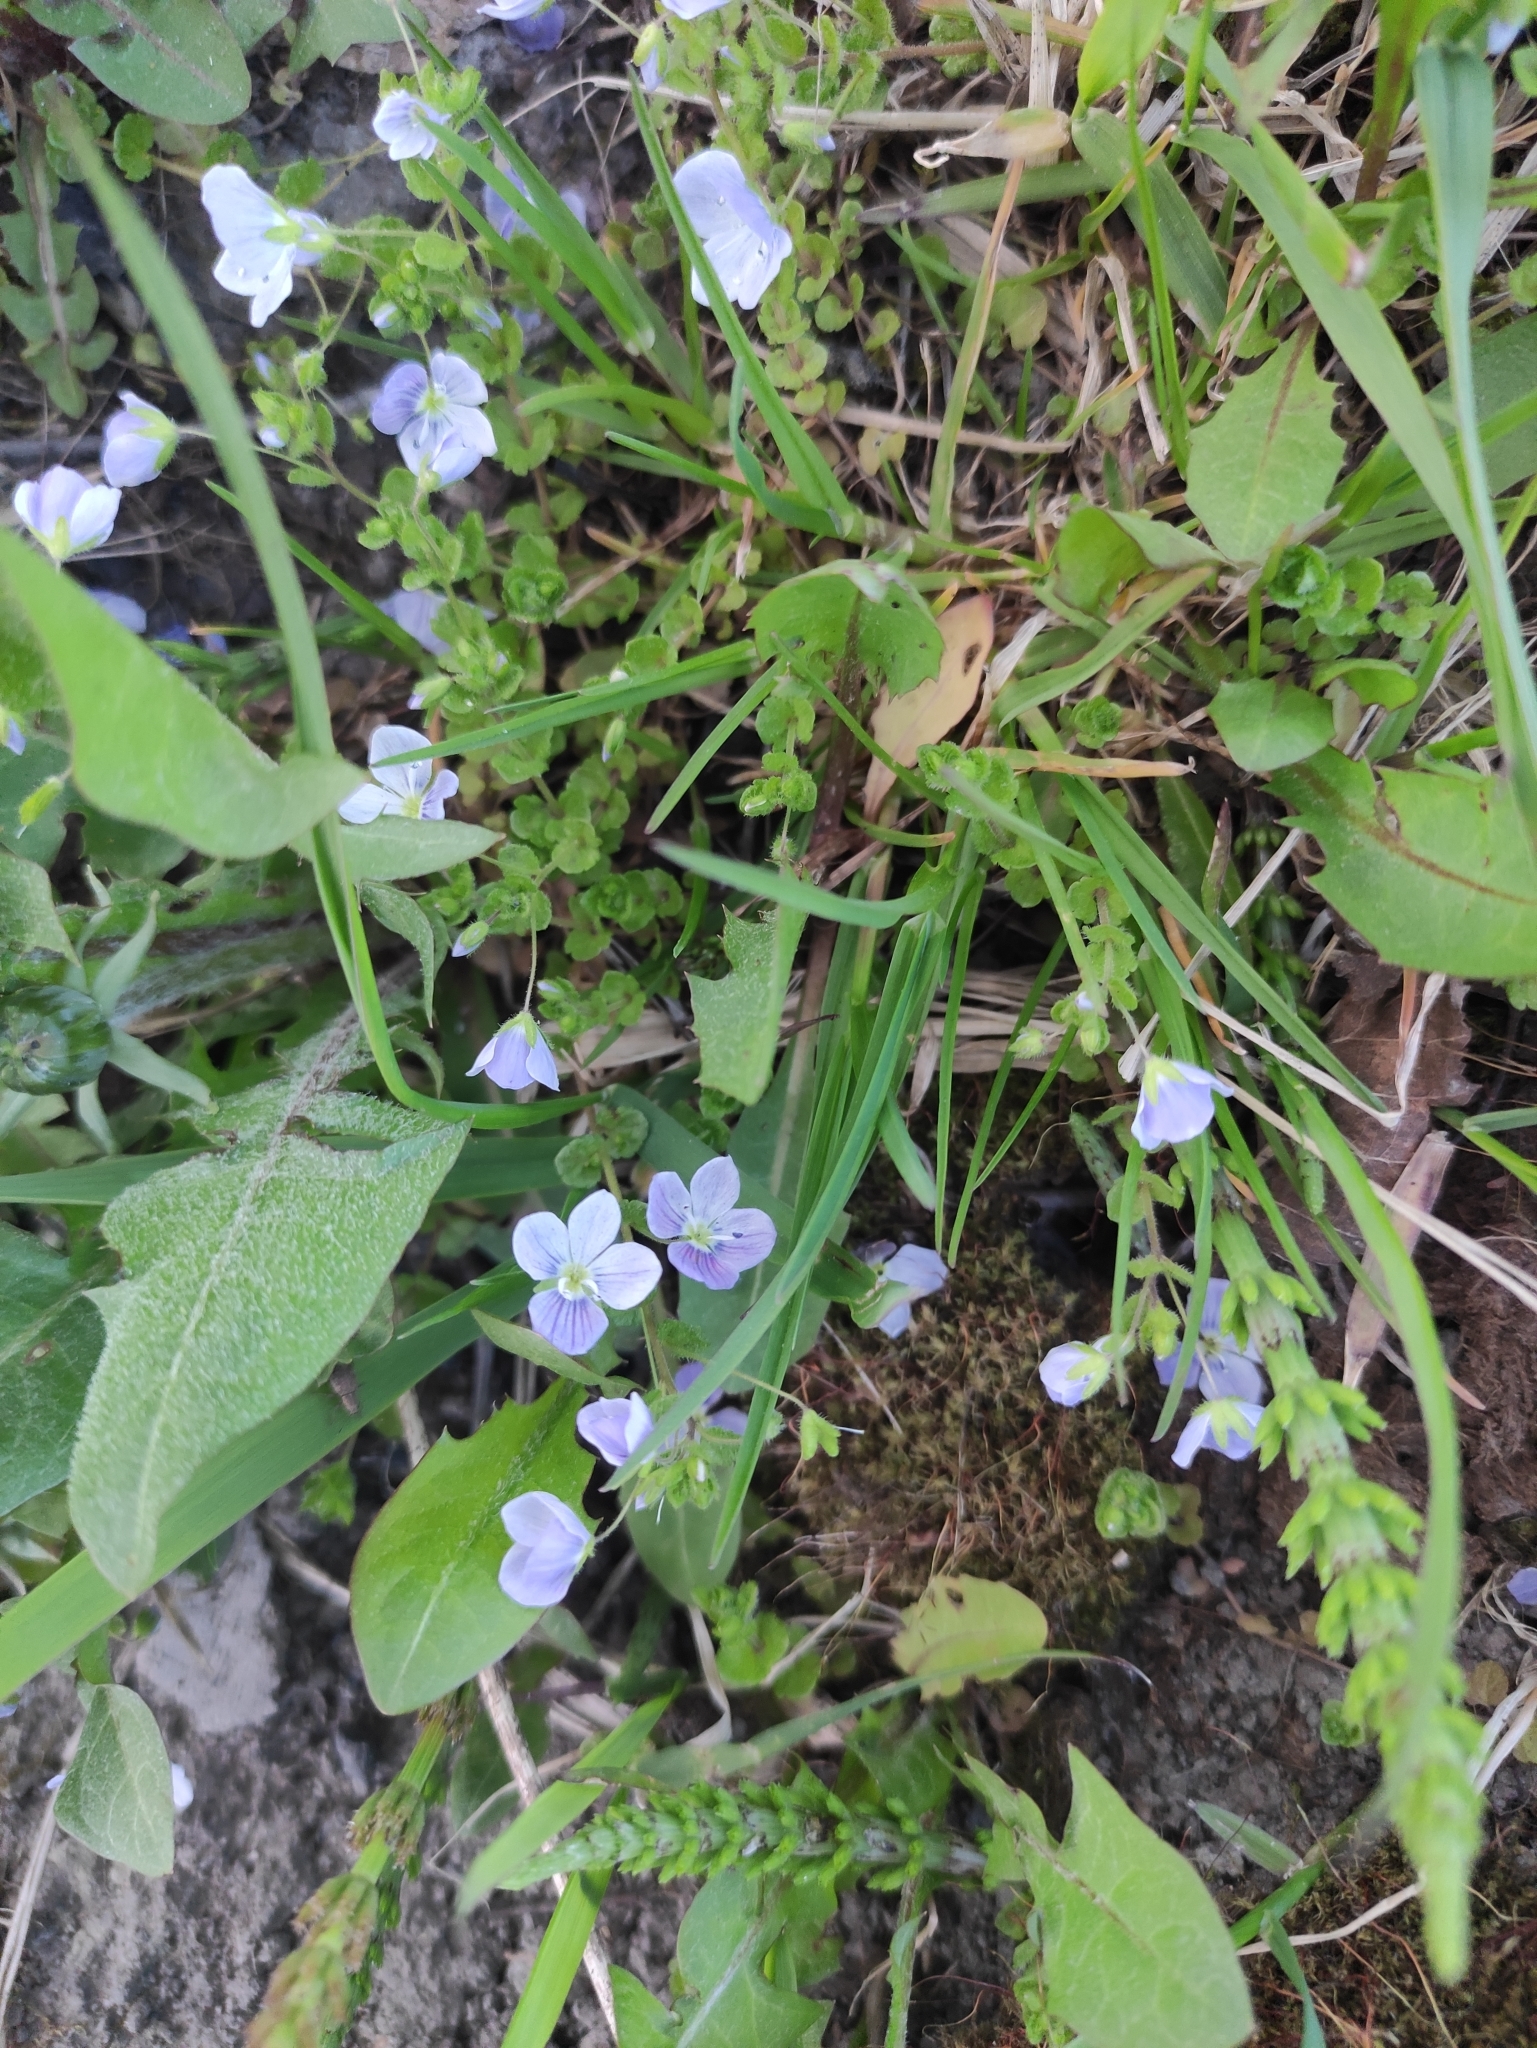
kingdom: Plantae
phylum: Tracheophyta
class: Magnoliopsida
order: Lamiales
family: Plantaginaceae
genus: Veronica
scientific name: Veronica filiformis
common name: Slender speedwell
